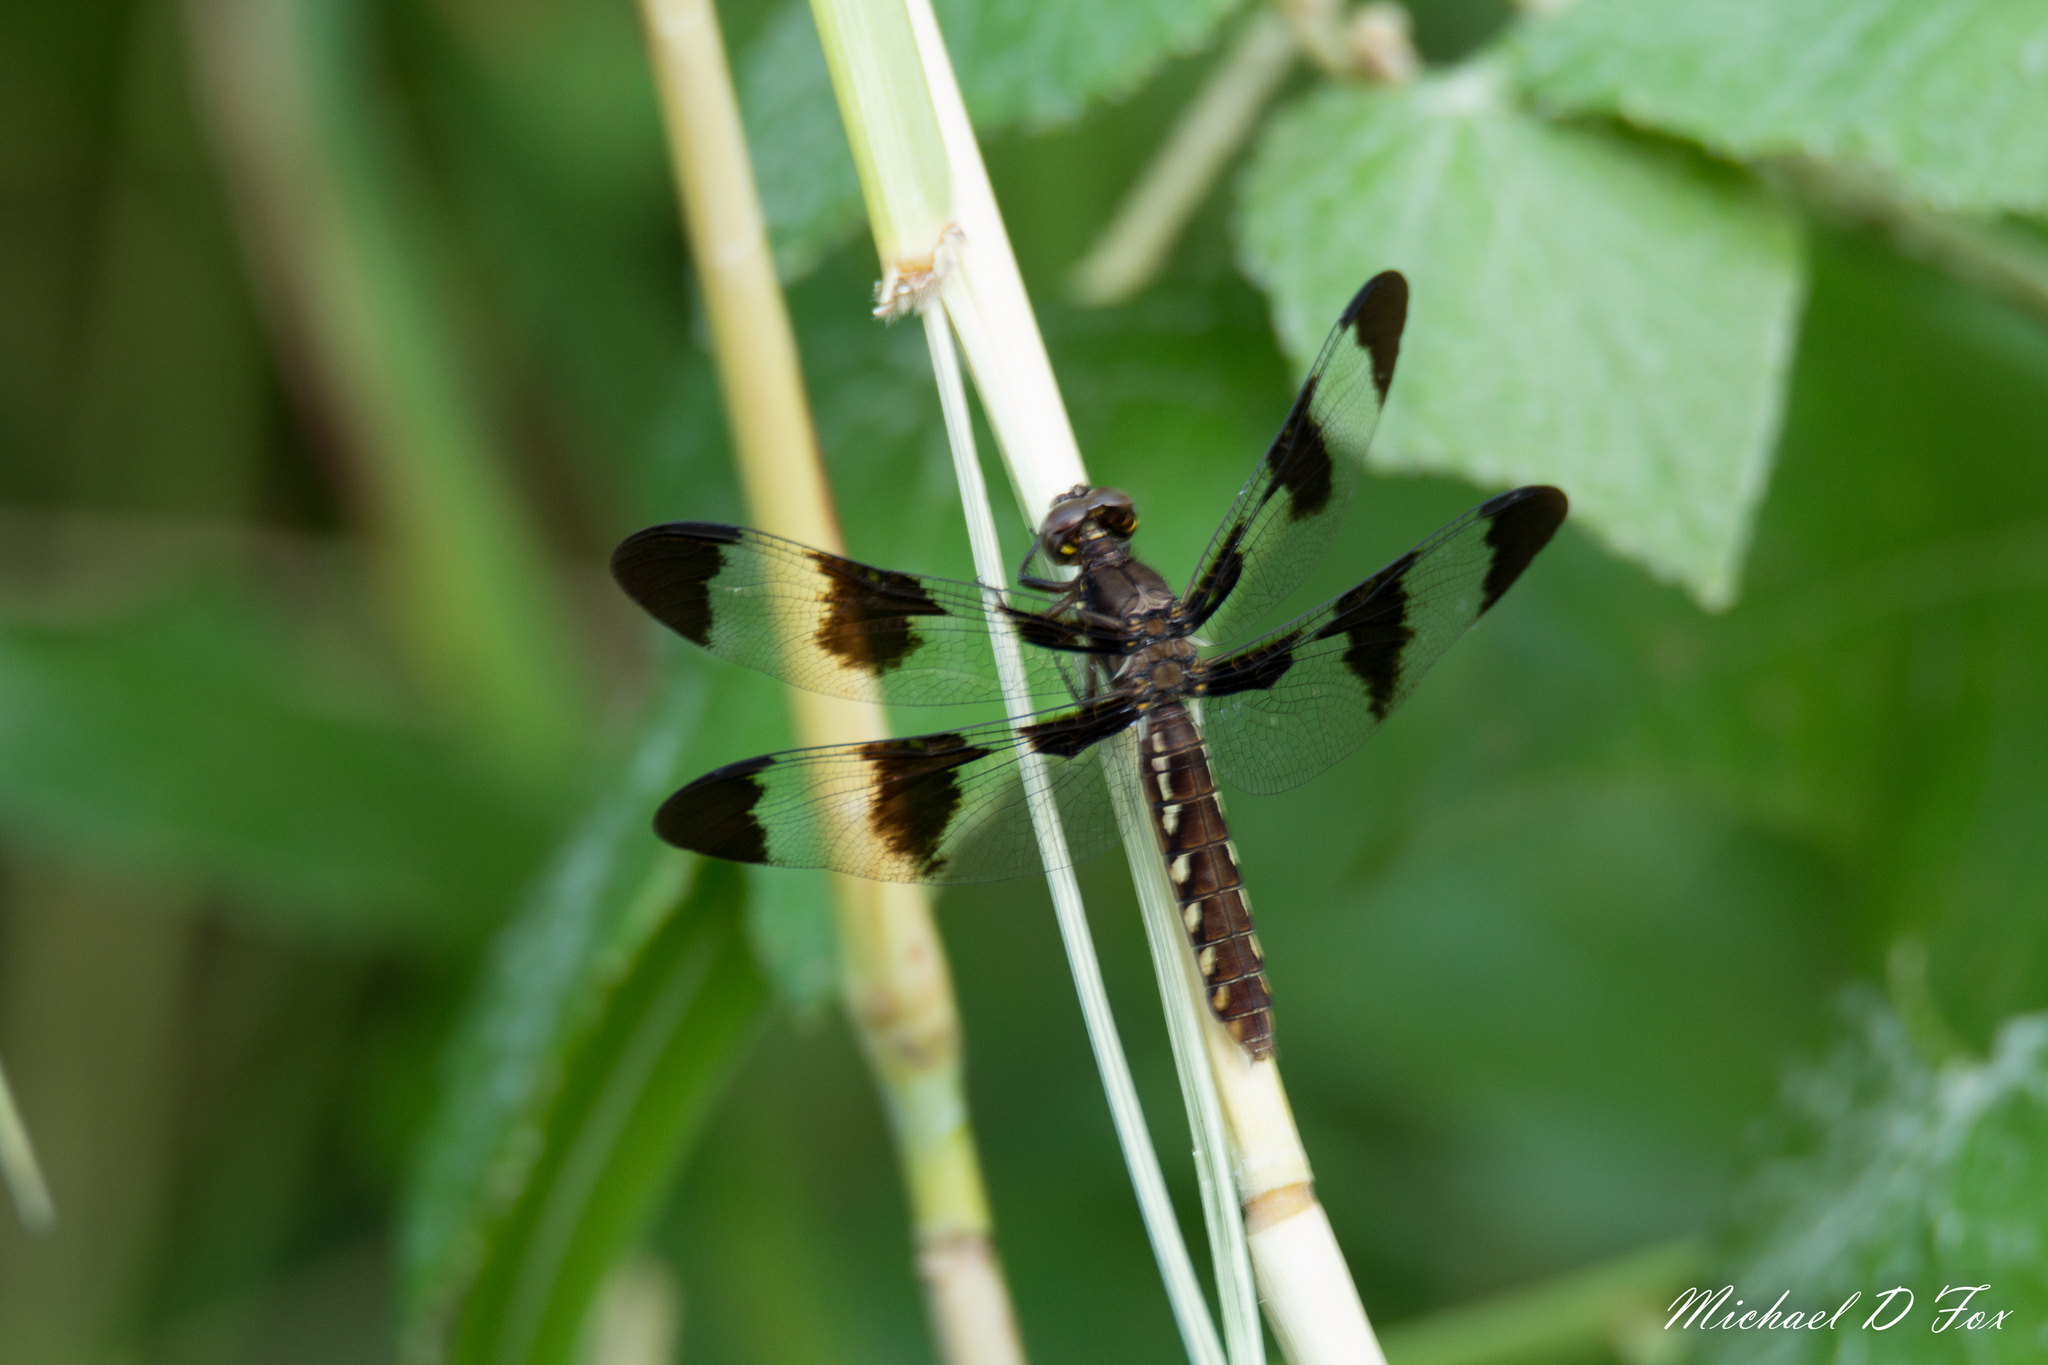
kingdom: Animalia
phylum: Arthropoda
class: Insecta
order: Odonata
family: Libellulidae
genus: Plathemis
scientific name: Plathemis lydia
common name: Common whitetail
